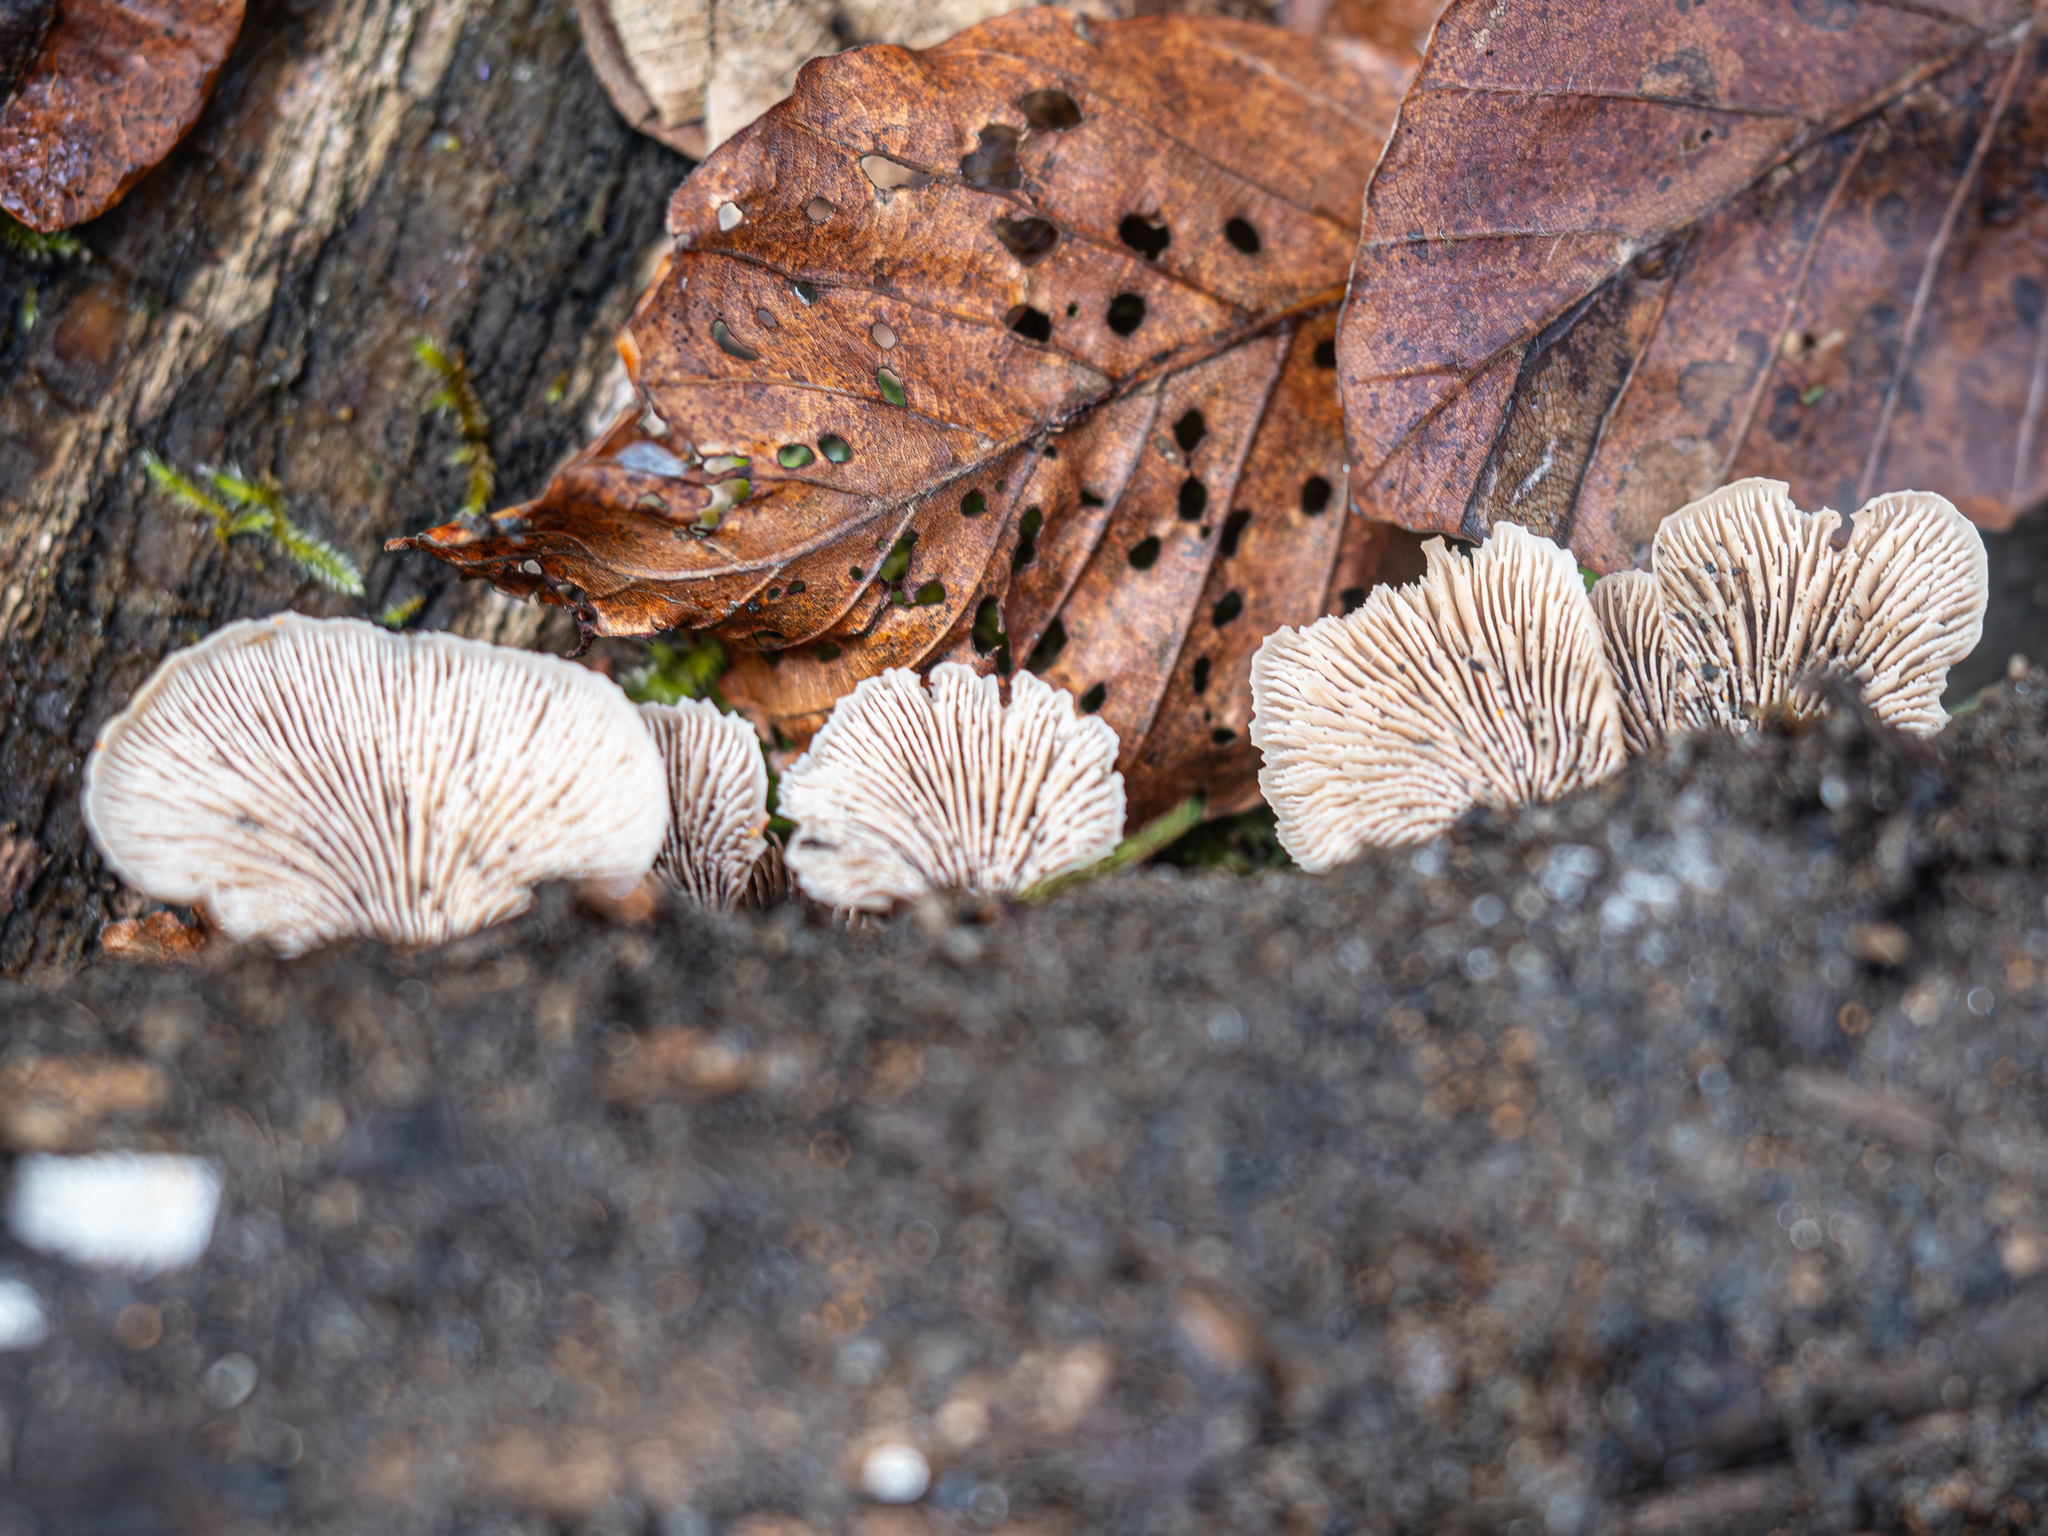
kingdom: Fungi
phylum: Basidiomycota
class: Agaricomycetes
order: Russulales
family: Auriscalpiaceae
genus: Lentinellus
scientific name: Lentinellus ursinus
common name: Bear lentinus
